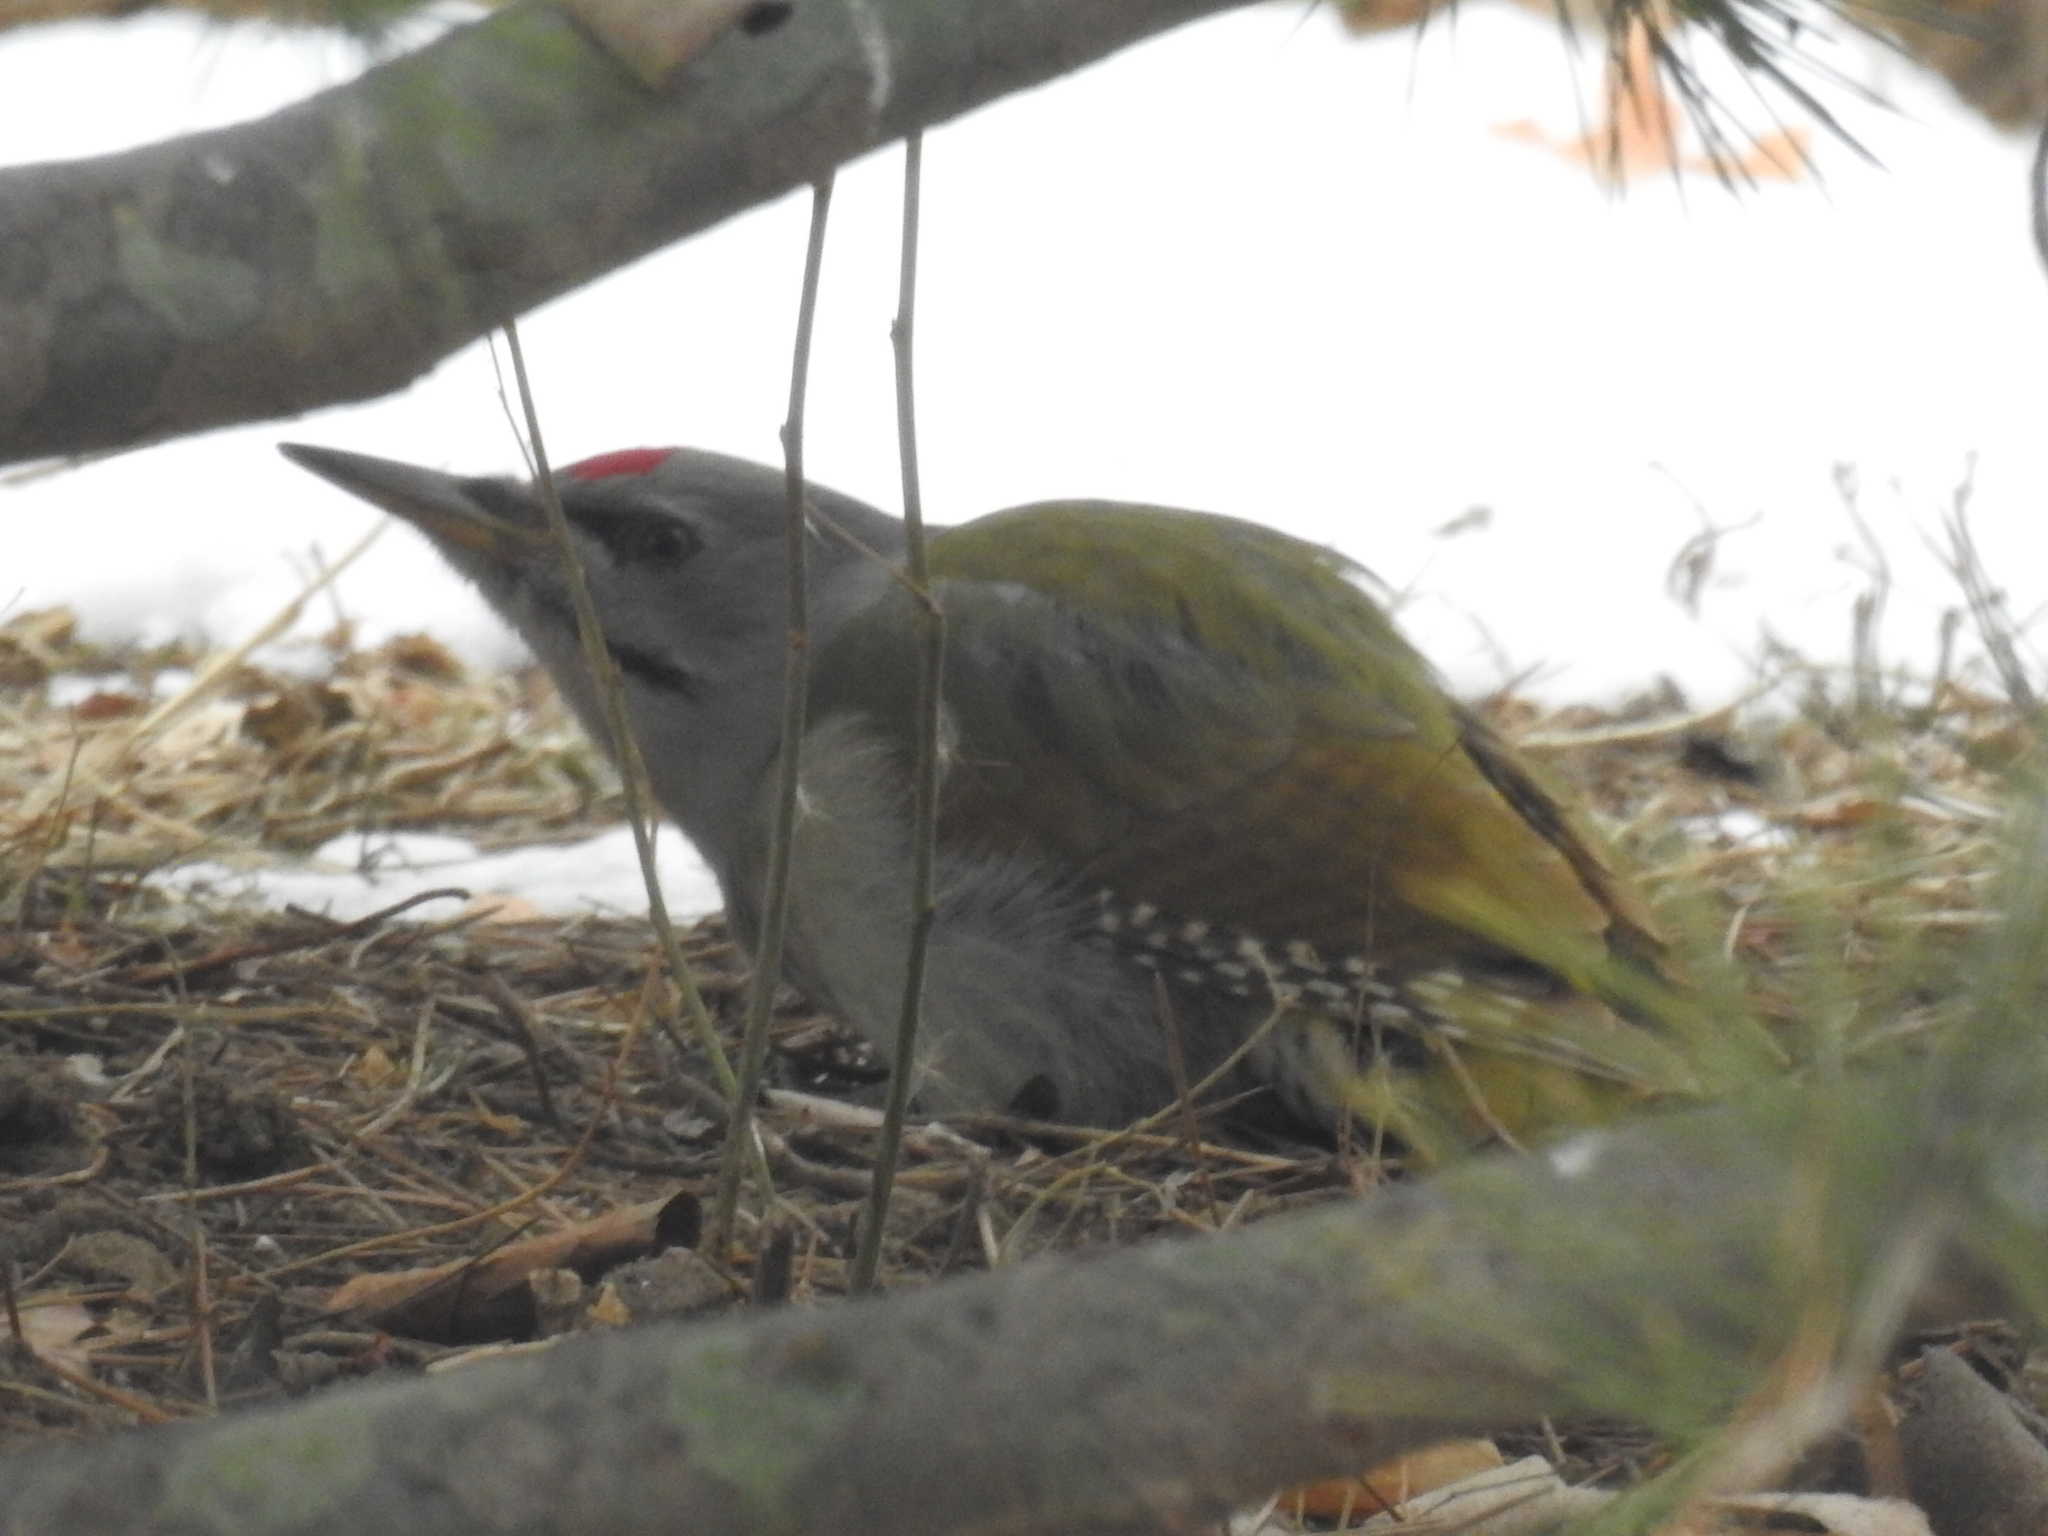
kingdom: Animalia
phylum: Chordata
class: Aves
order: Piciformes
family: Picidae
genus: Picus
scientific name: Picus canus
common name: Grey-headed woodpecker
